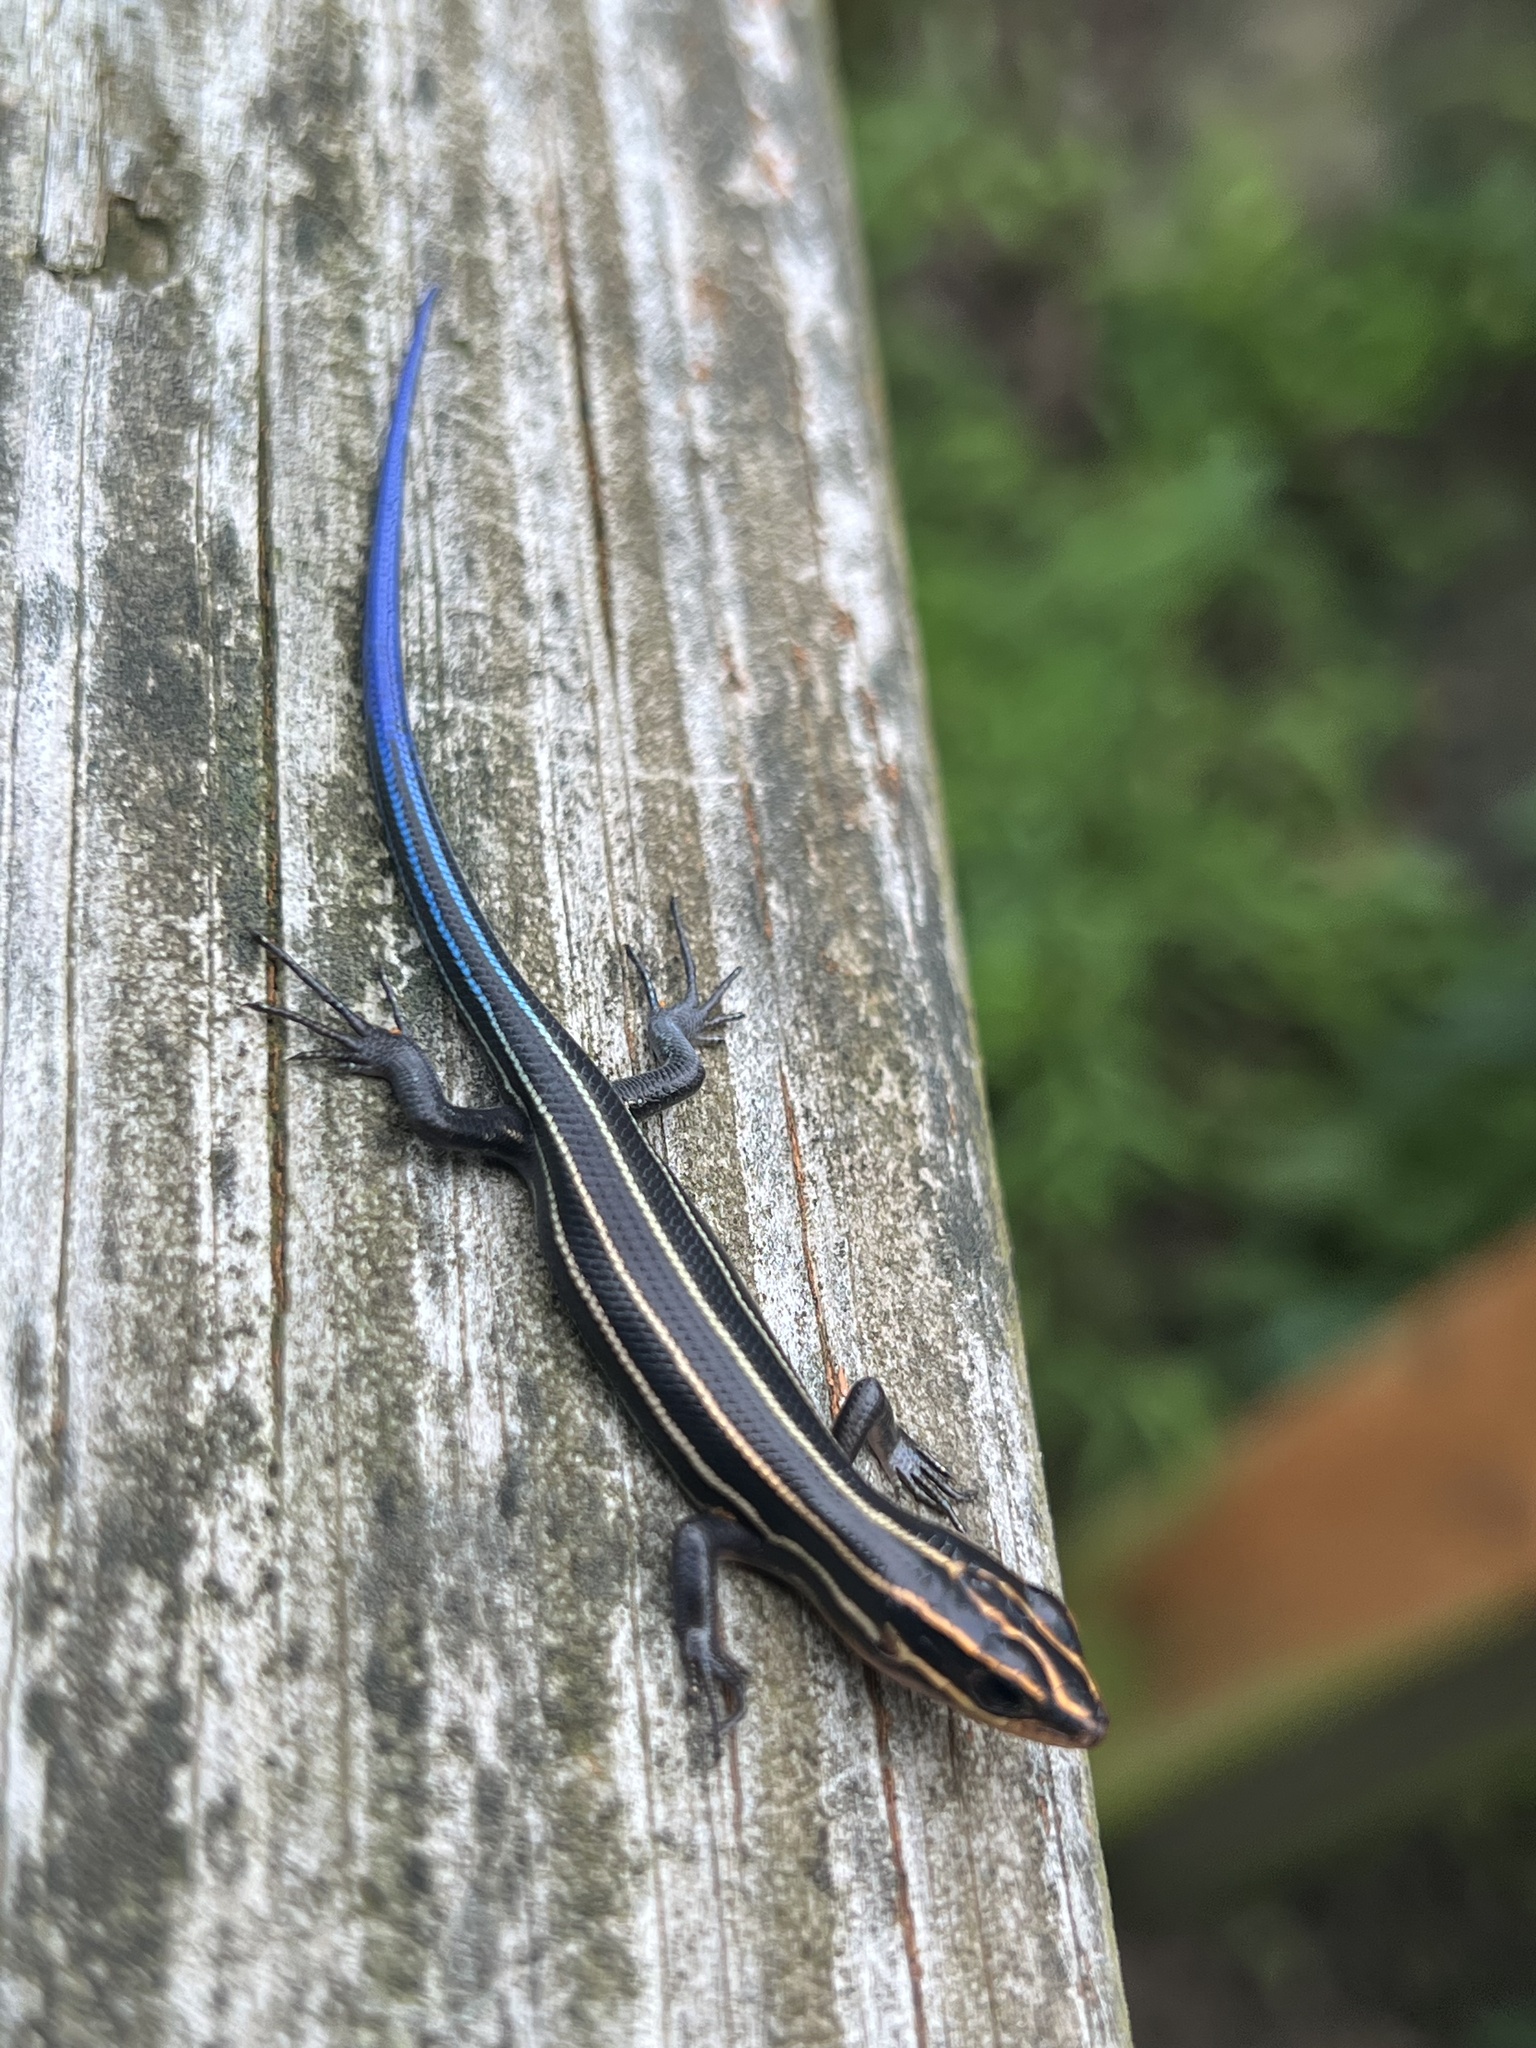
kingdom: Animalia
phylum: Chordata
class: Squamata
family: Scincidae
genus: Plestiodon
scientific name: Plestiodon fasciatus
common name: Five-lined skink
